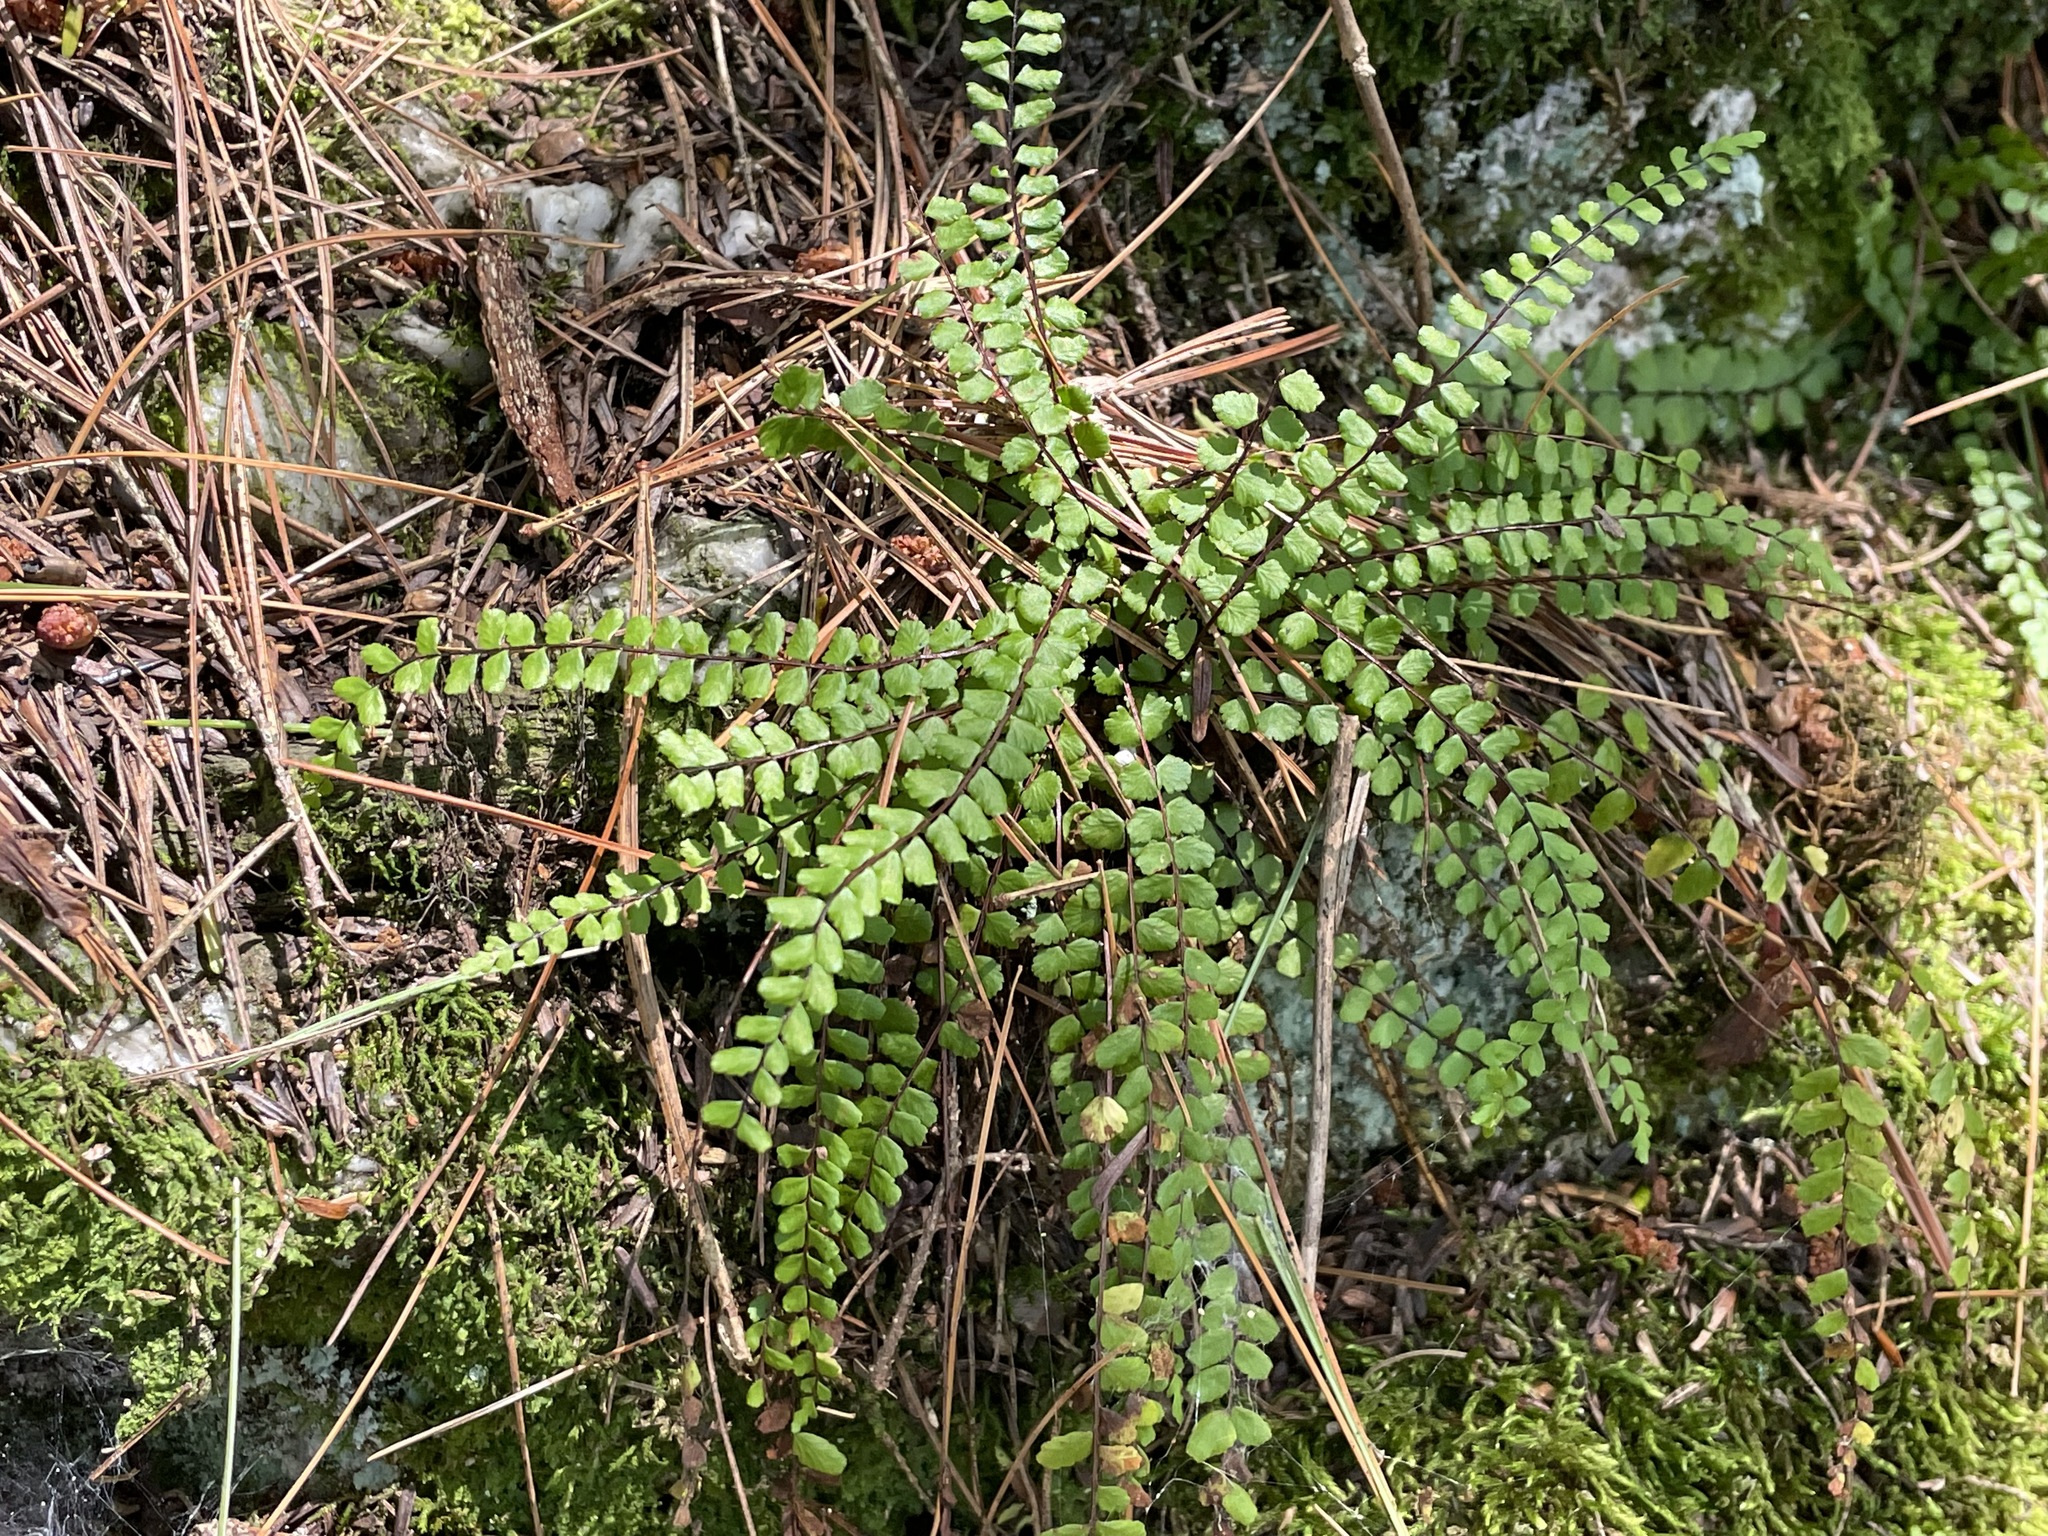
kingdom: Plantae
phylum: Tracheophyta
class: Polypodiopsida
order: Polypodiales
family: Aspleniaceae
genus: Asplenium
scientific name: Asplenium trichomanes
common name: Maidenhair spleenwort
